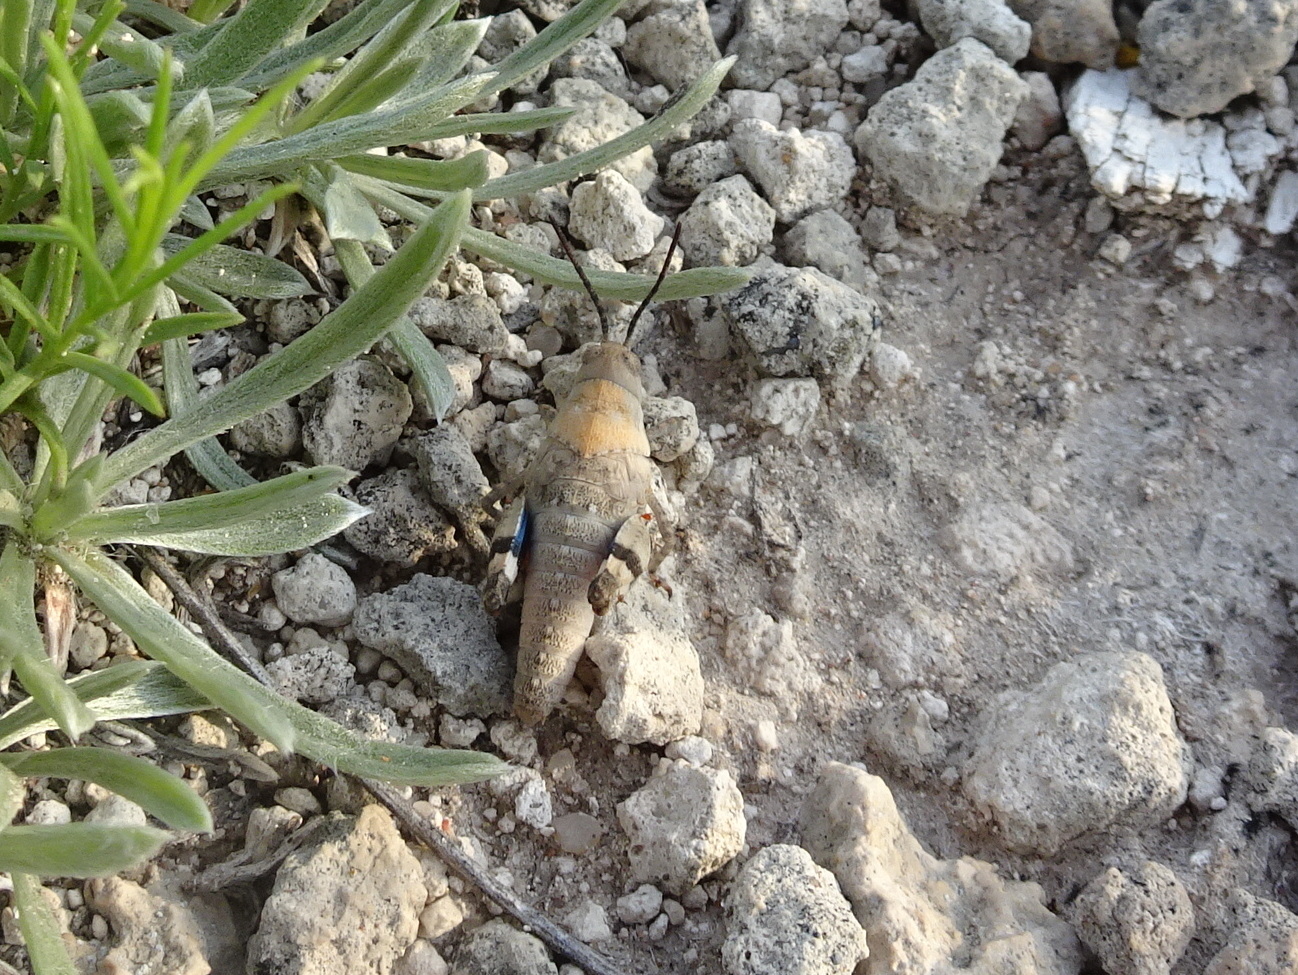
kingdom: Animalia
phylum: Arthropoda
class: Insecta
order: Orthoptera
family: Acrididae
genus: Hadrotettix
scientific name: Hadrotettix trifasciatus
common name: Threebanded grasshopper
